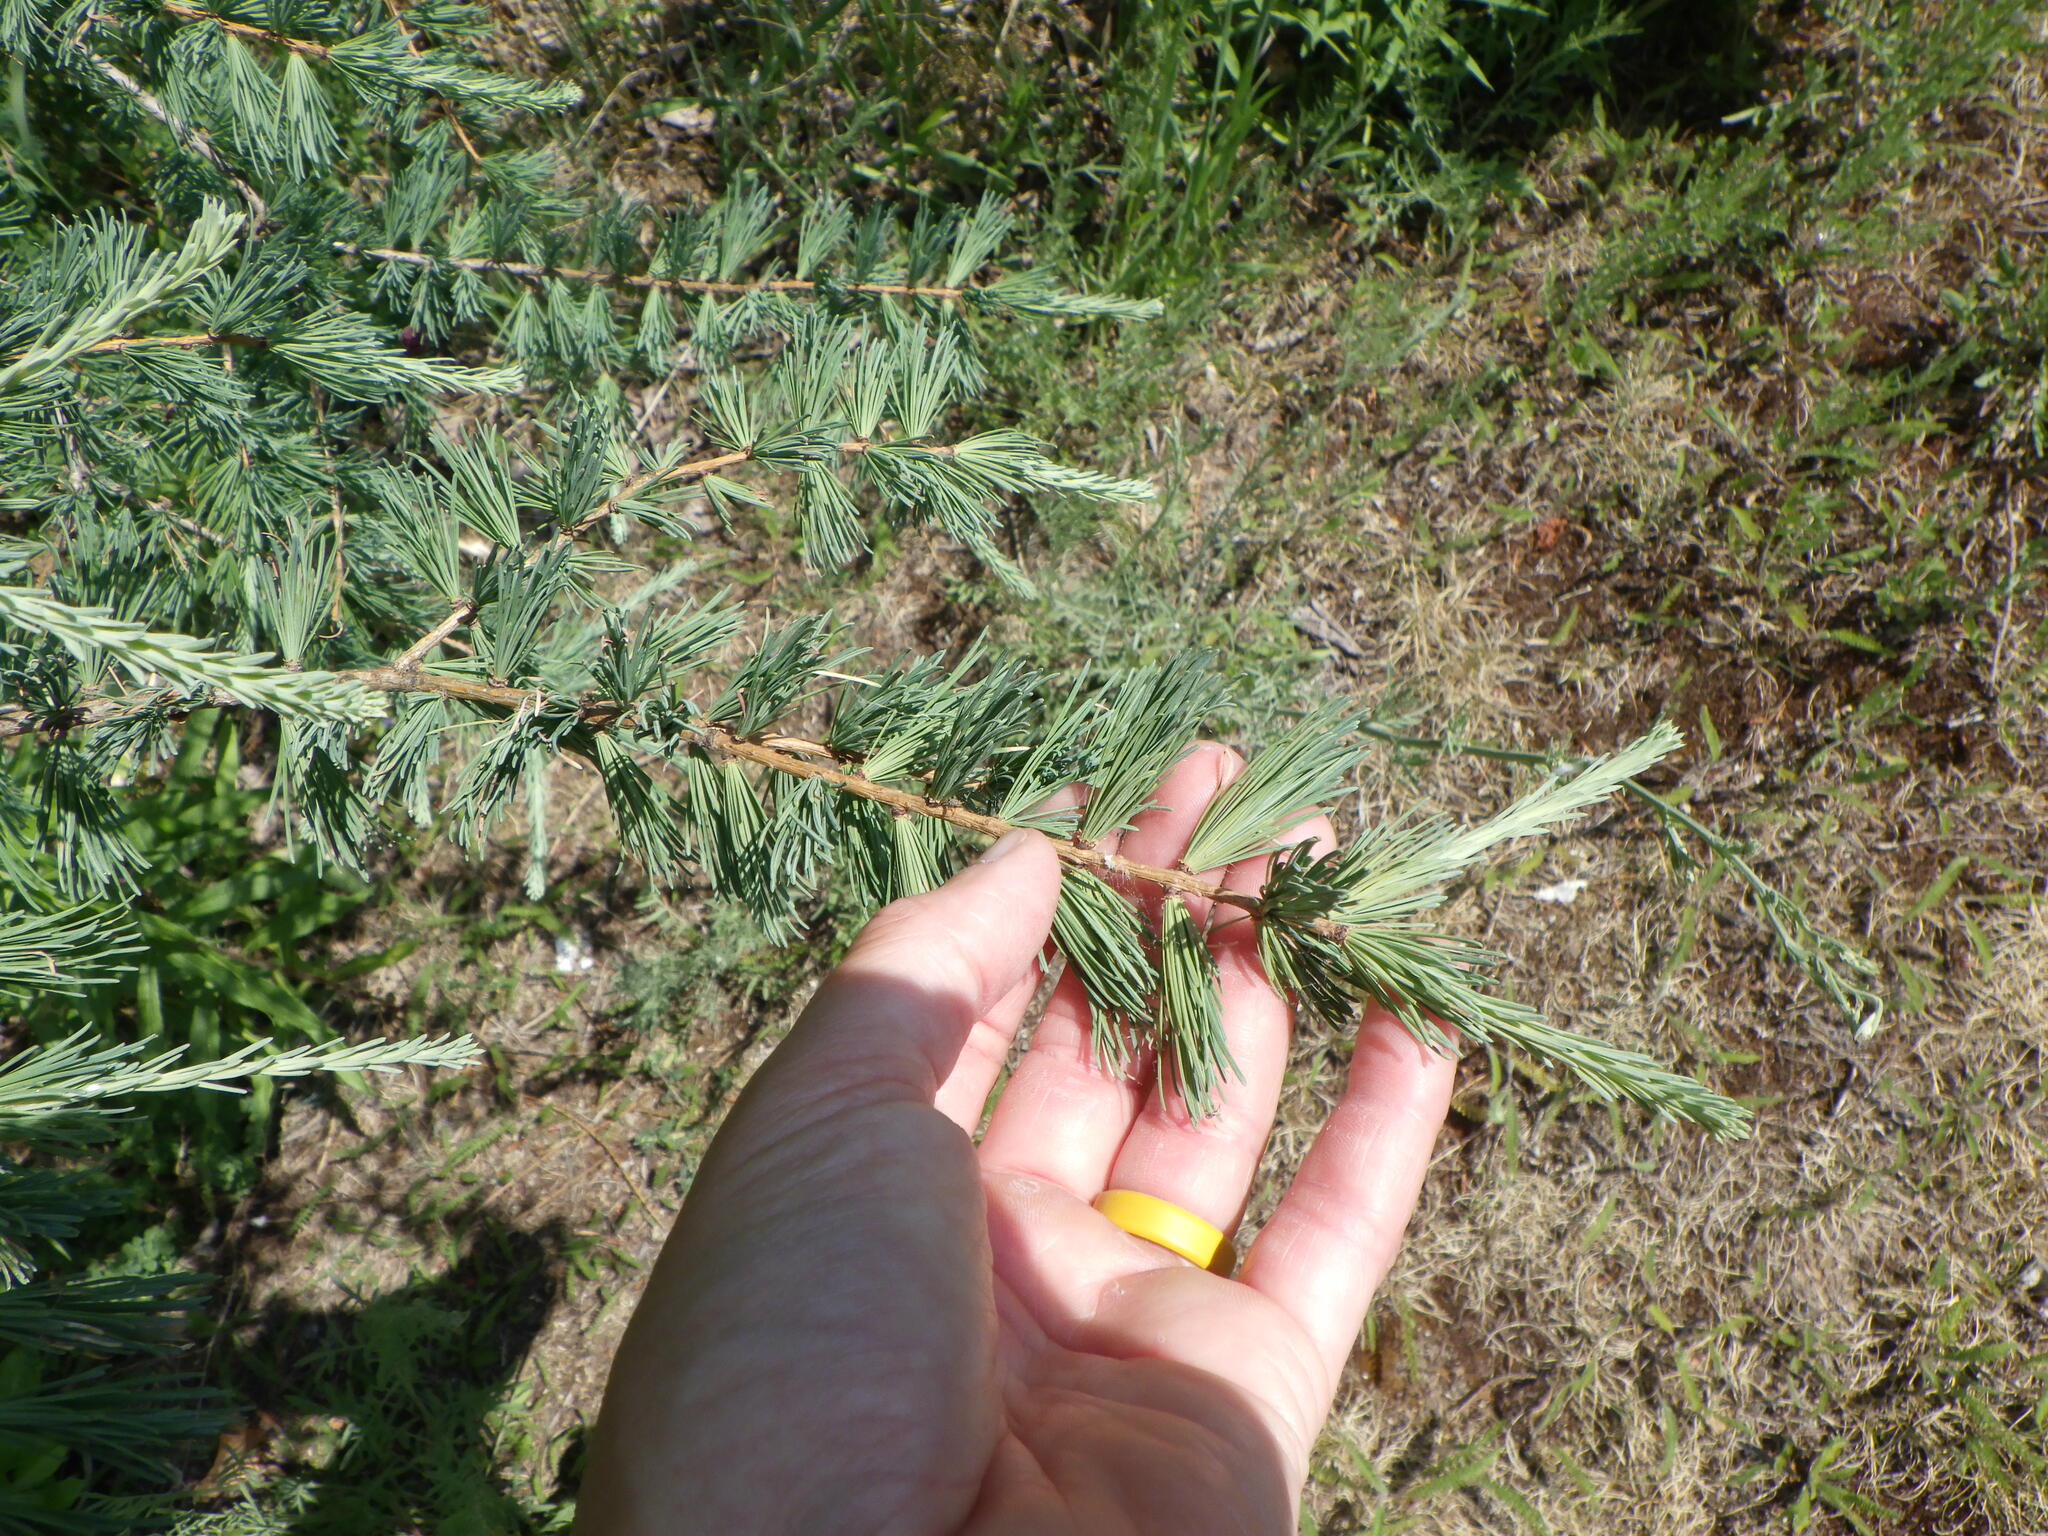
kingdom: Plantae
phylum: Tracheophyta
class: Pinopsida
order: Pinales
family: Pinaceae
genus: Larix
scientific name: Larix laricina
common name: American larch
